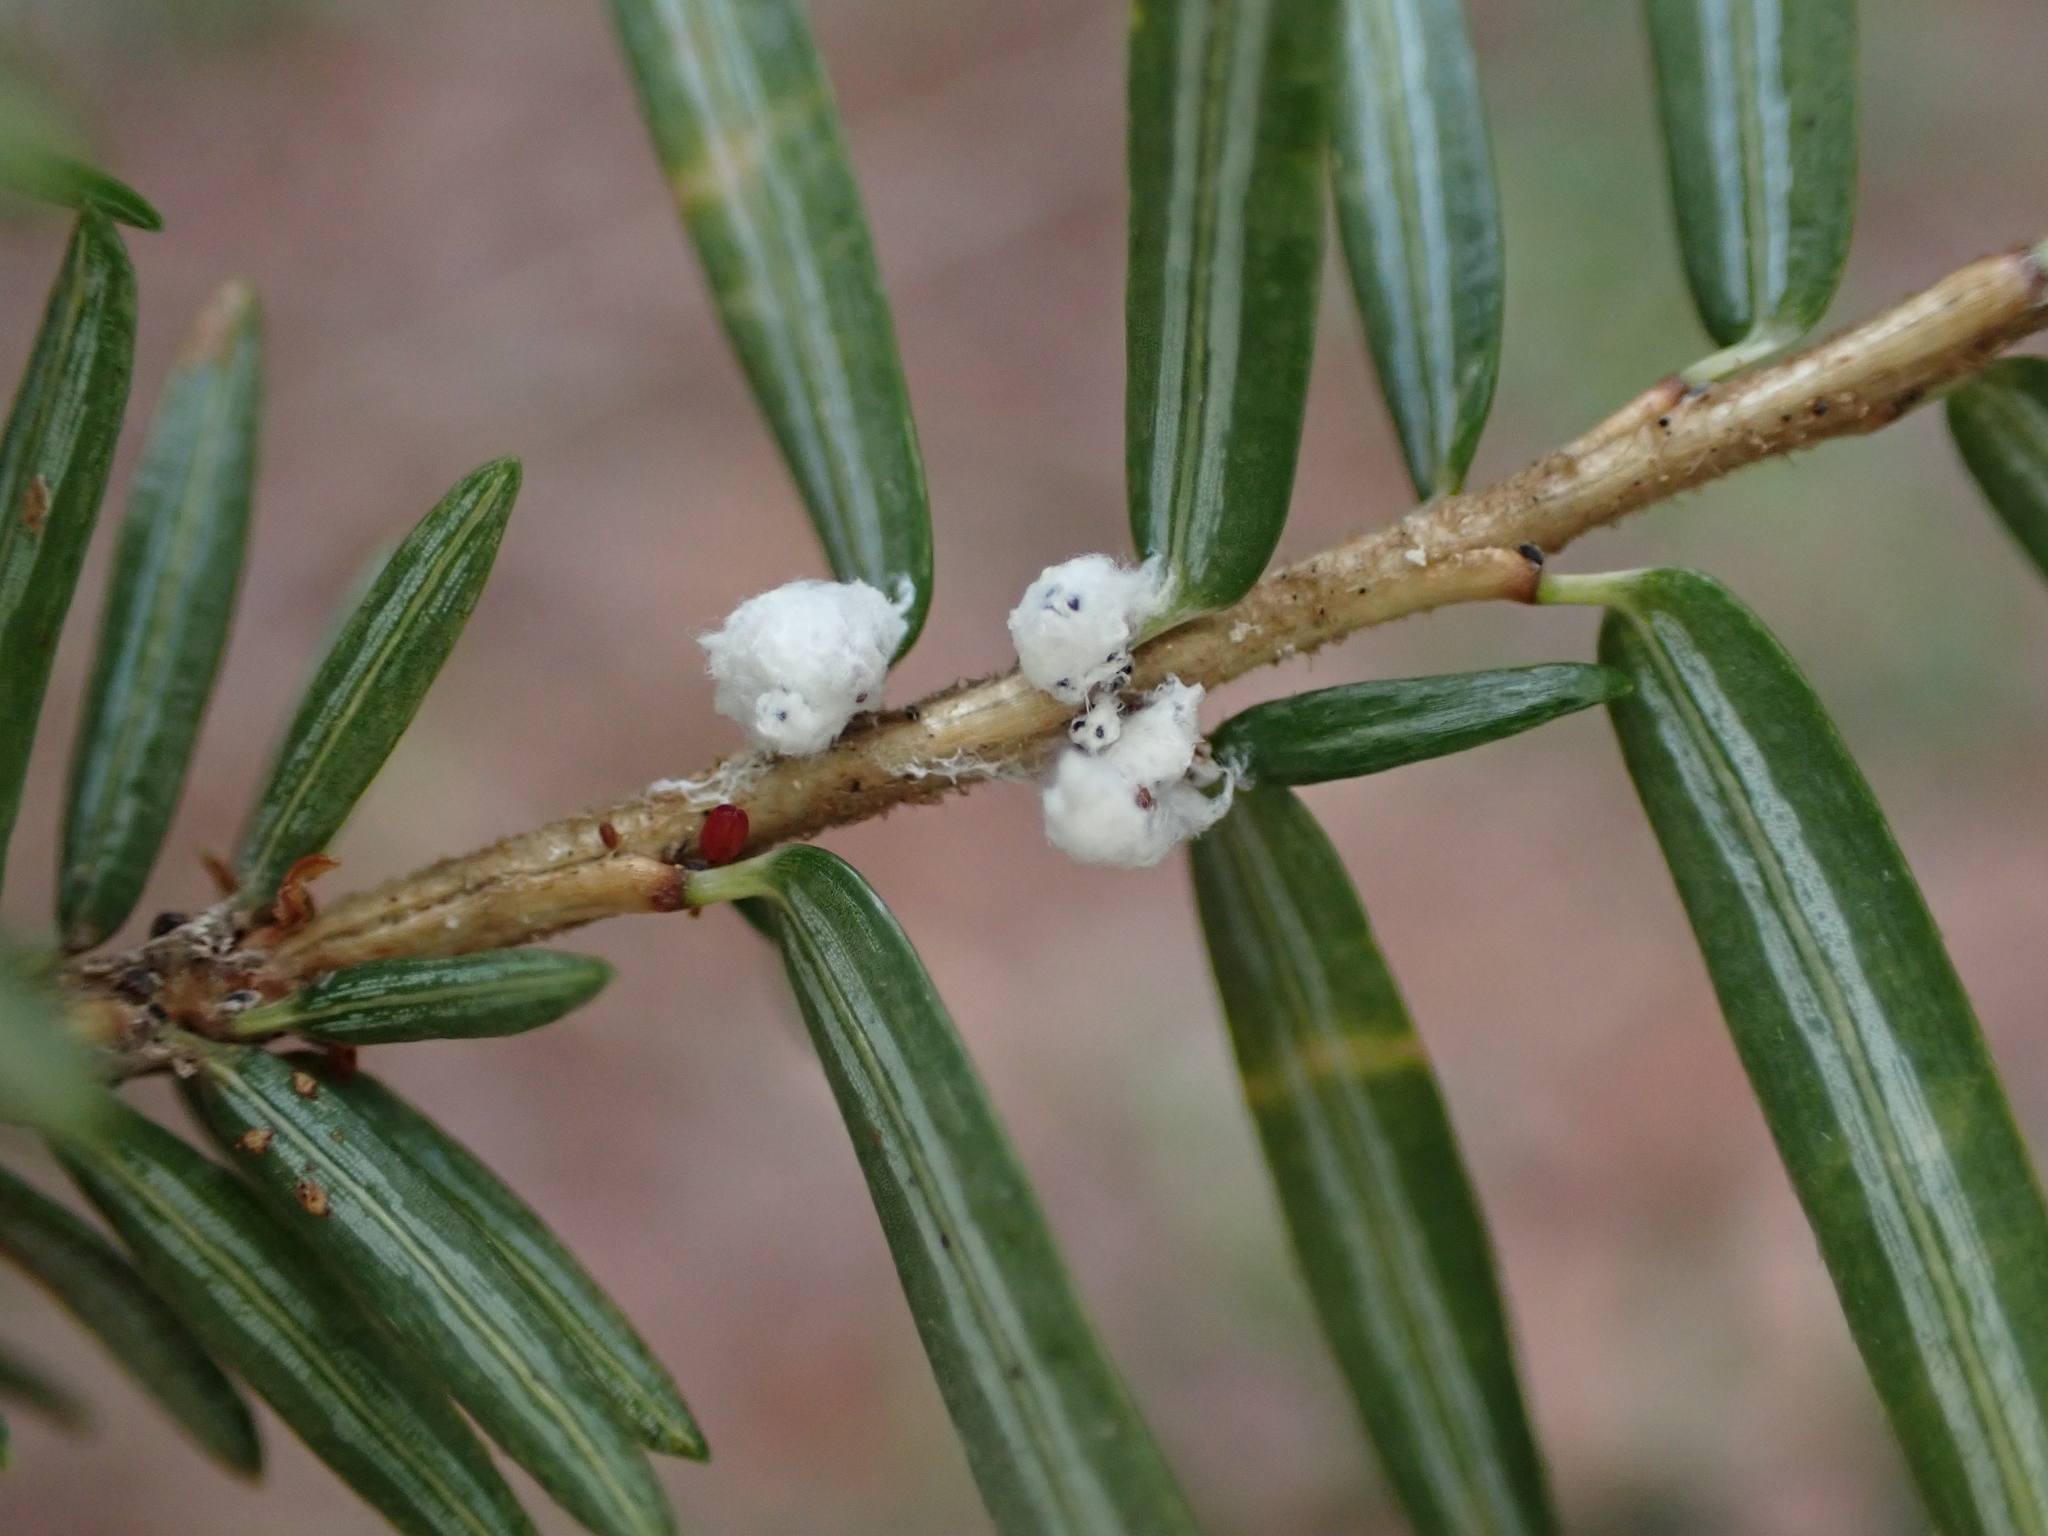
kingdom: Animalia
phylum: Arthropoda
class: Insecta
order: Hemiptera
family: Adelgidae
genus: Adelges
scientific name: Adelges tsugae
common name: Hemlock woolly adelgid
